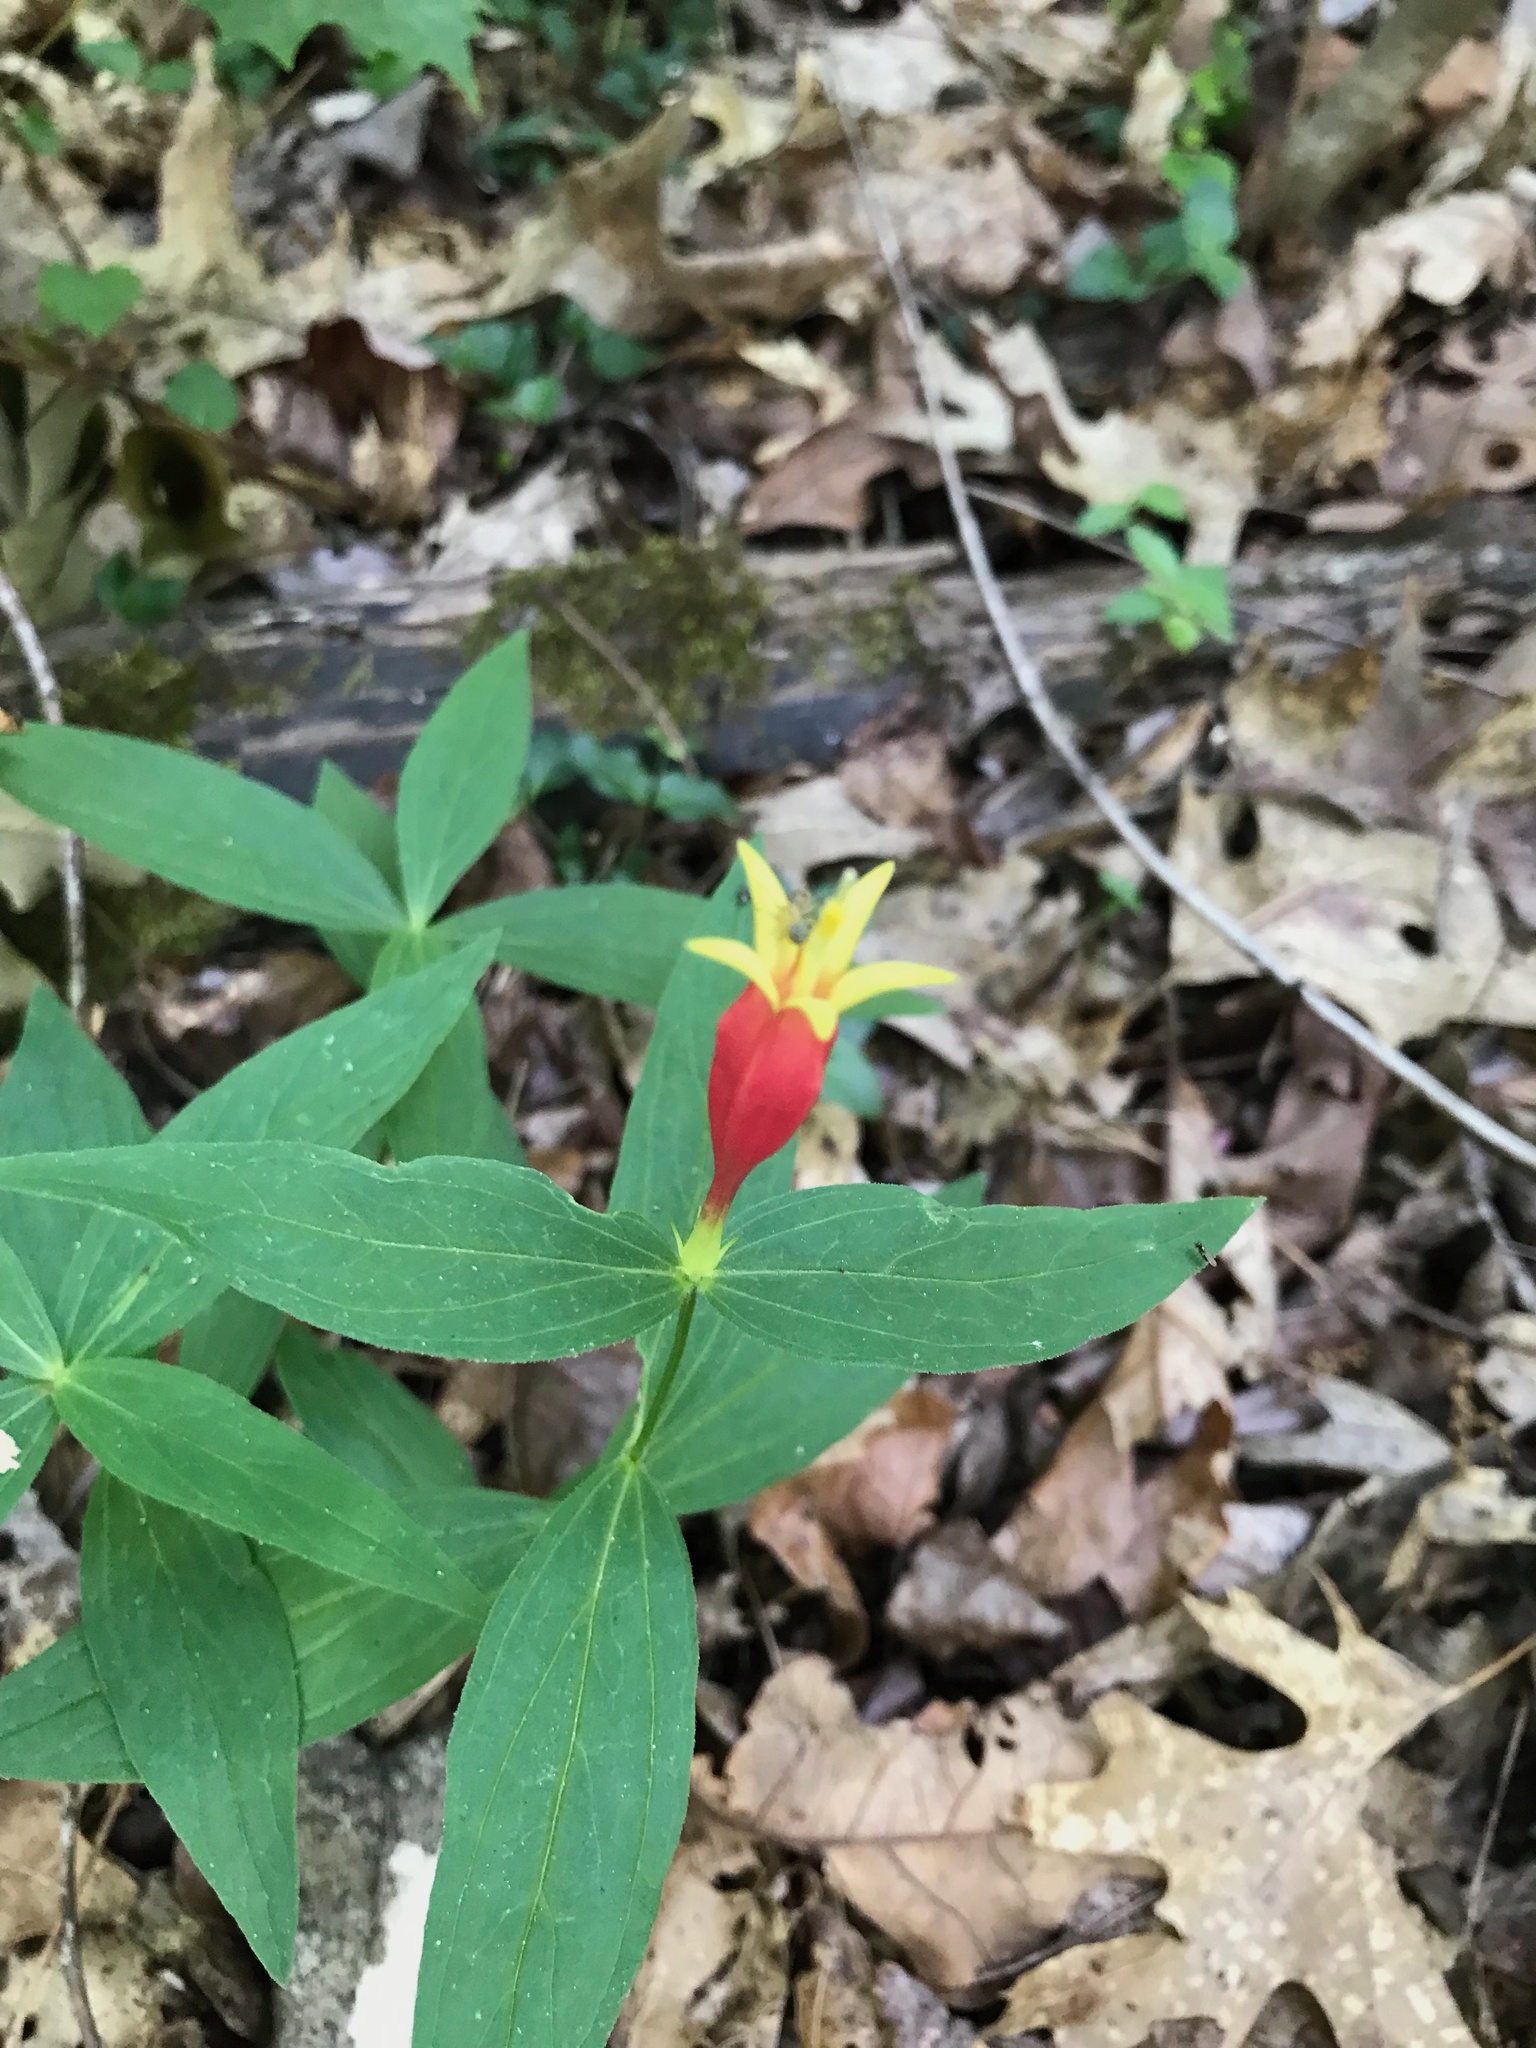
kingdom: Plantae
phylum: Tracheophyta
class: Magnoliopsida
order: Gentianales
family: Loganiaceae
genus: Spigelia
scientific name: Spigelia marilandica
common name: Indian-pink
